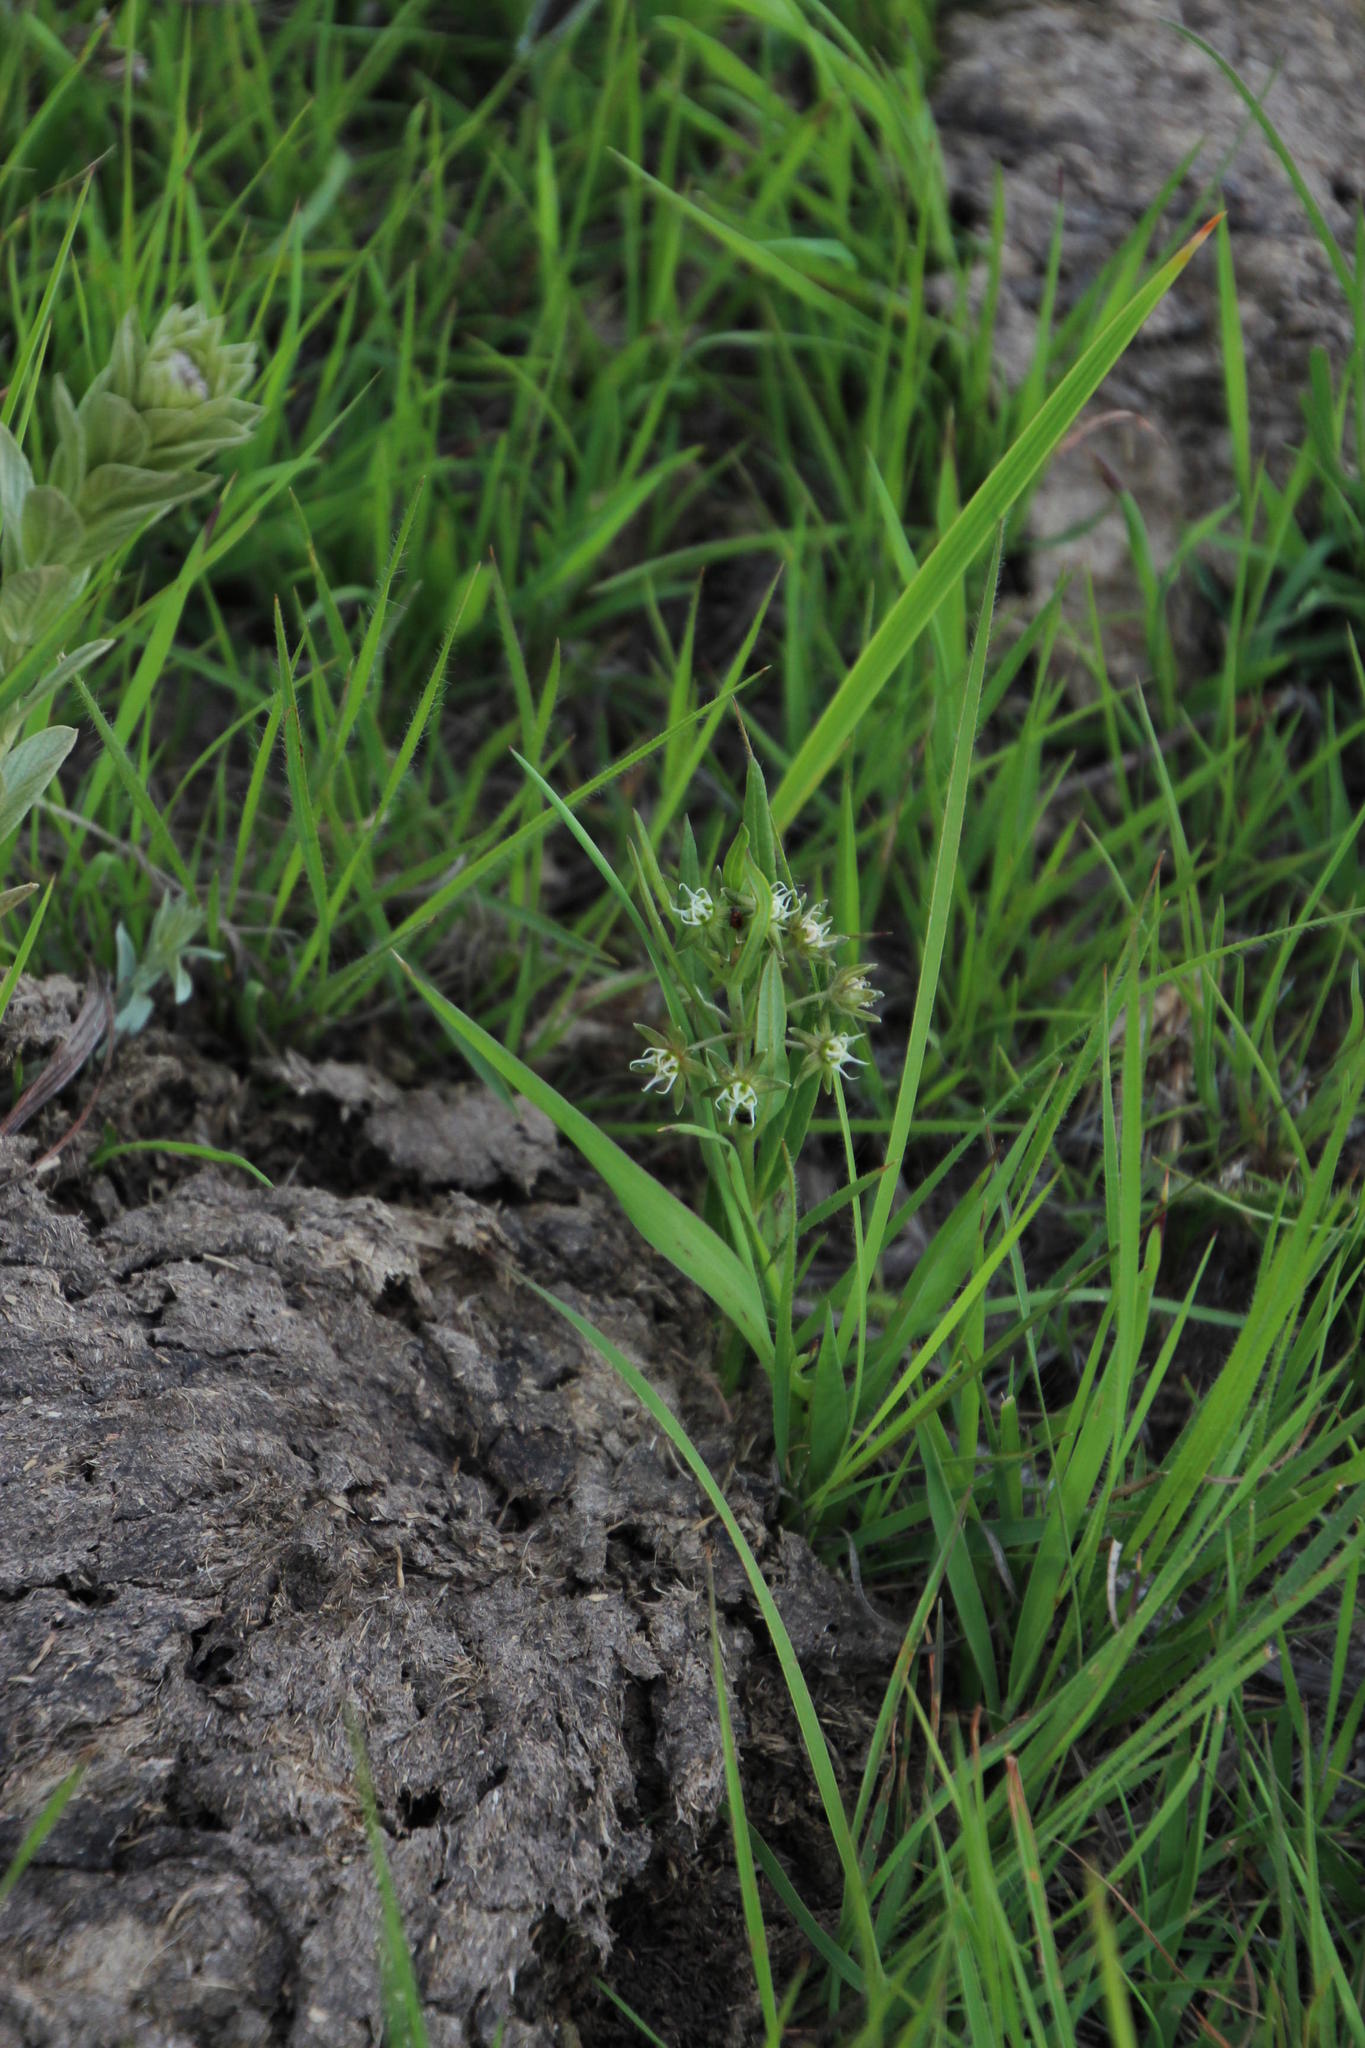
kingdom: Plantae
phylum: Tracheophyta
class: Magnoliopsida
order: Gentianales
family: Apocynaceae
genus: Aspidoglossum
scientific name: Aspidoglossum dissimile
